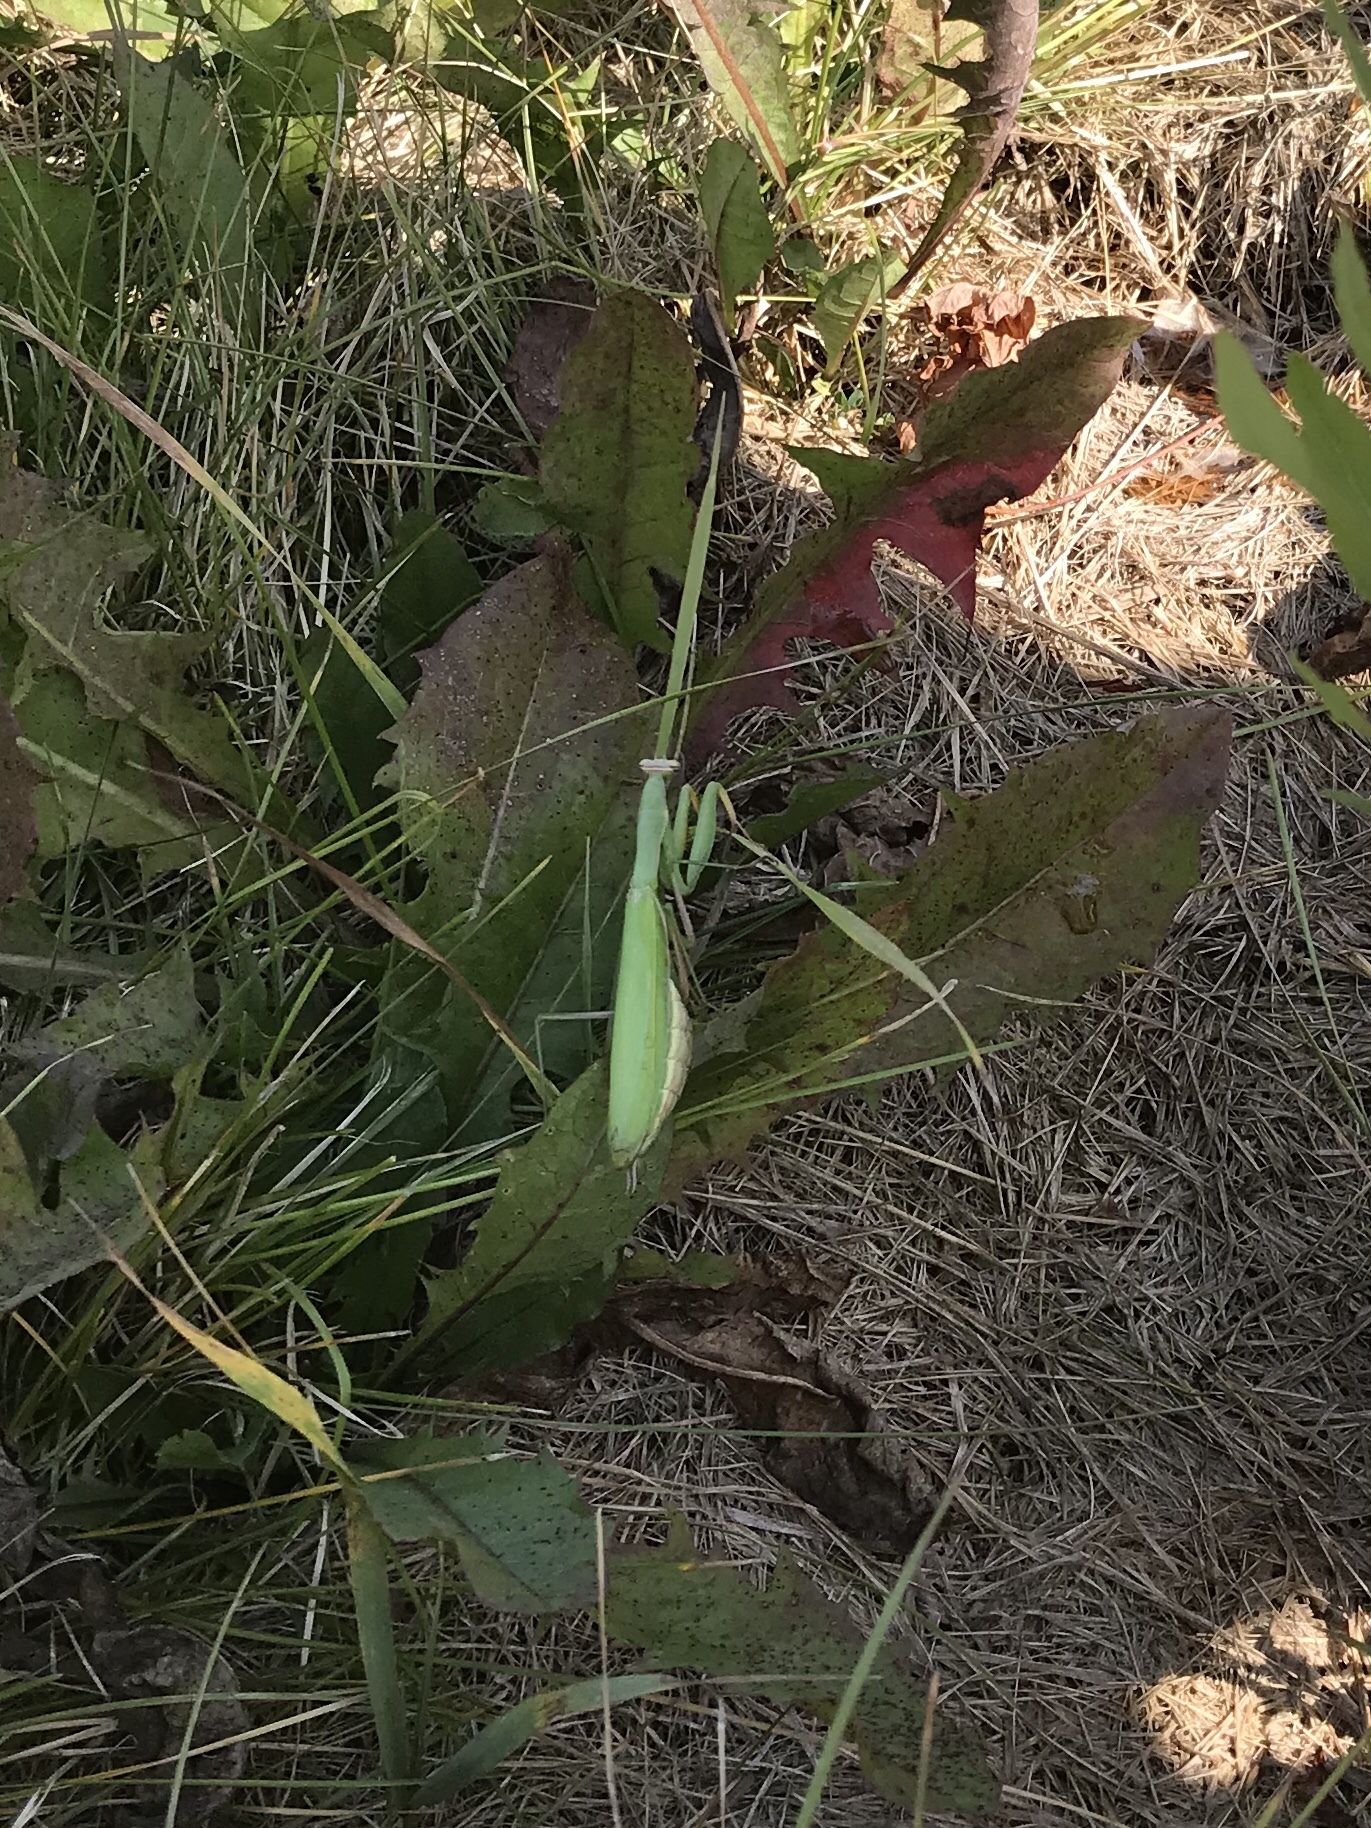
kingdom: Animalia
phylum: Arthropoda
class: Insecta
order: Mantodea
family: Mantidae
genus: Mantis
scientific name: Mantis religiosa
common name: Praying mantis
